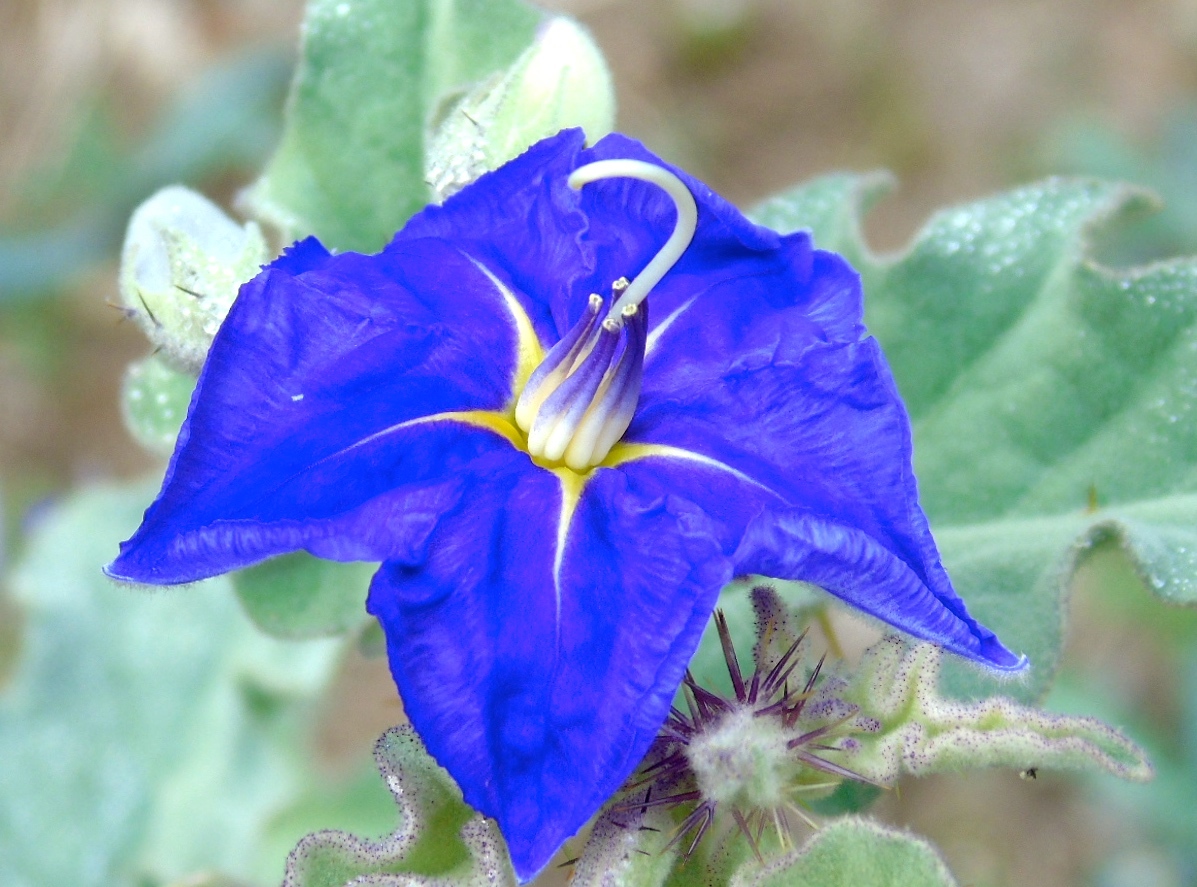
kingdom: Plantae
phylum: Tracheophyta
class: Magnoliopsida
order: Solanales
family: Solanaceae
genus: Solanum
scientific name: Solanum houstonii
